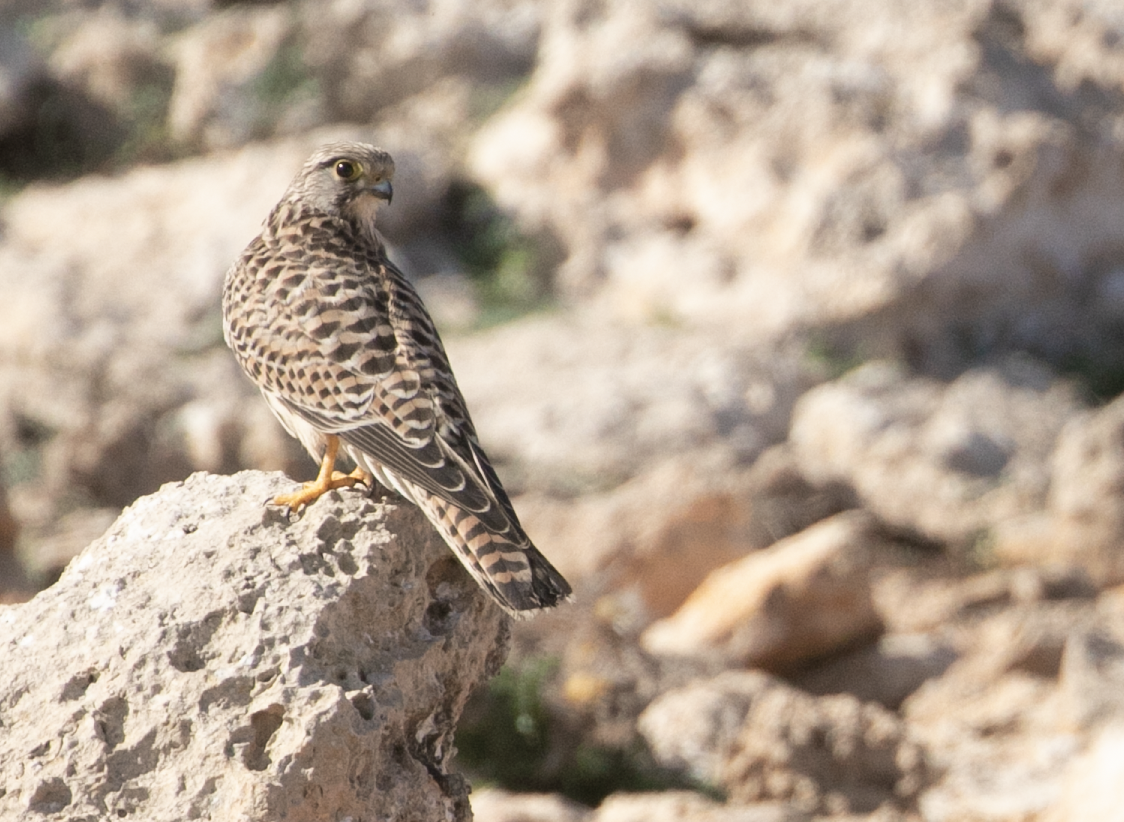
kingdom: Animalia
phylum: Chordata
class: Aves
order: Falconiformes
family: Falconidae
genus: Falco
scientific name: Falco tinnunculus
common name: Common kestrel
